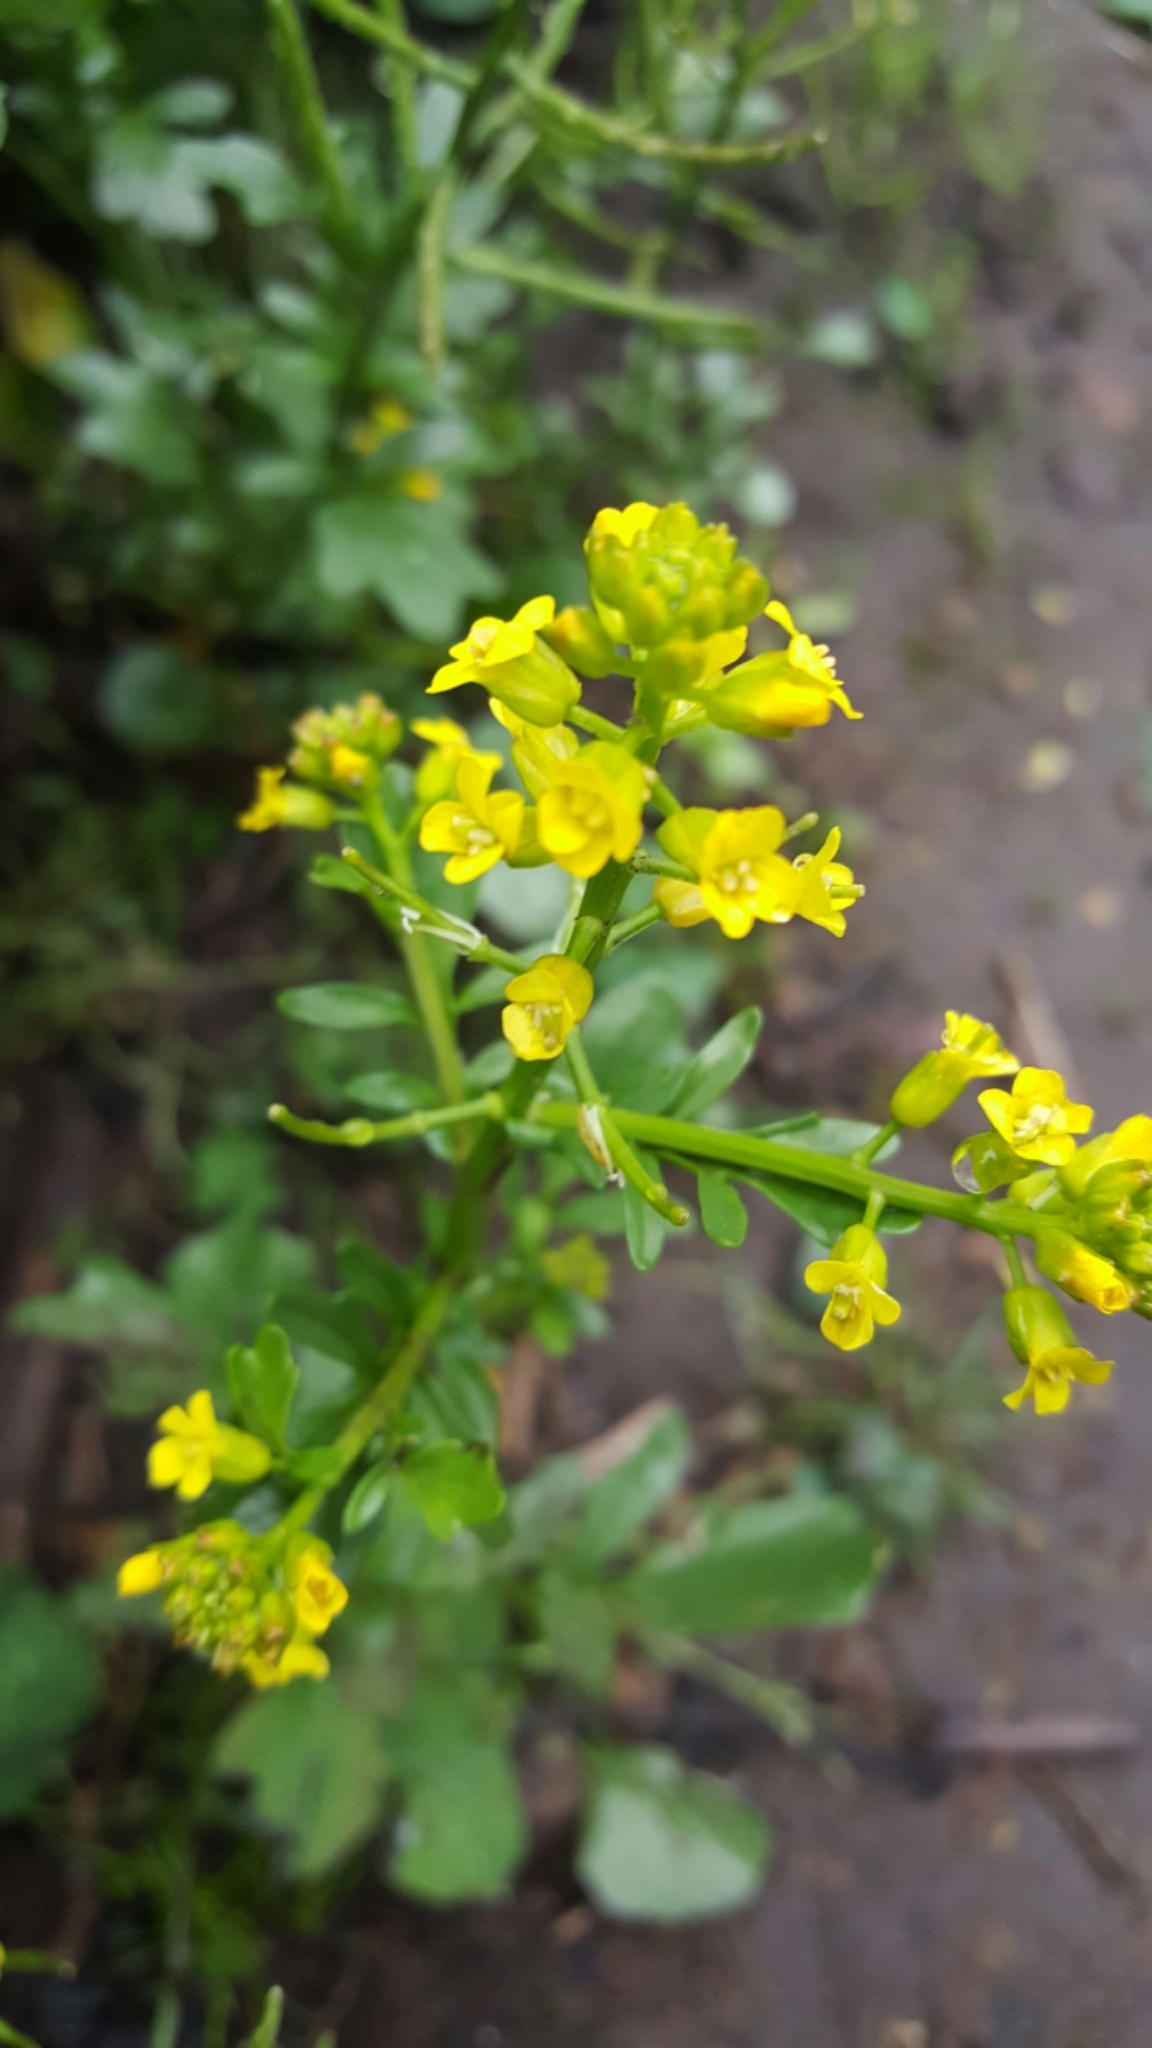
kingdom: Plantae
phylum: Tracheophyta
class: Magnoliopsida
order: Brassicales
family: Brassicaceae
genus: Barbarea
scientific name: Barbarea orthoceras
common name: American wintercress
